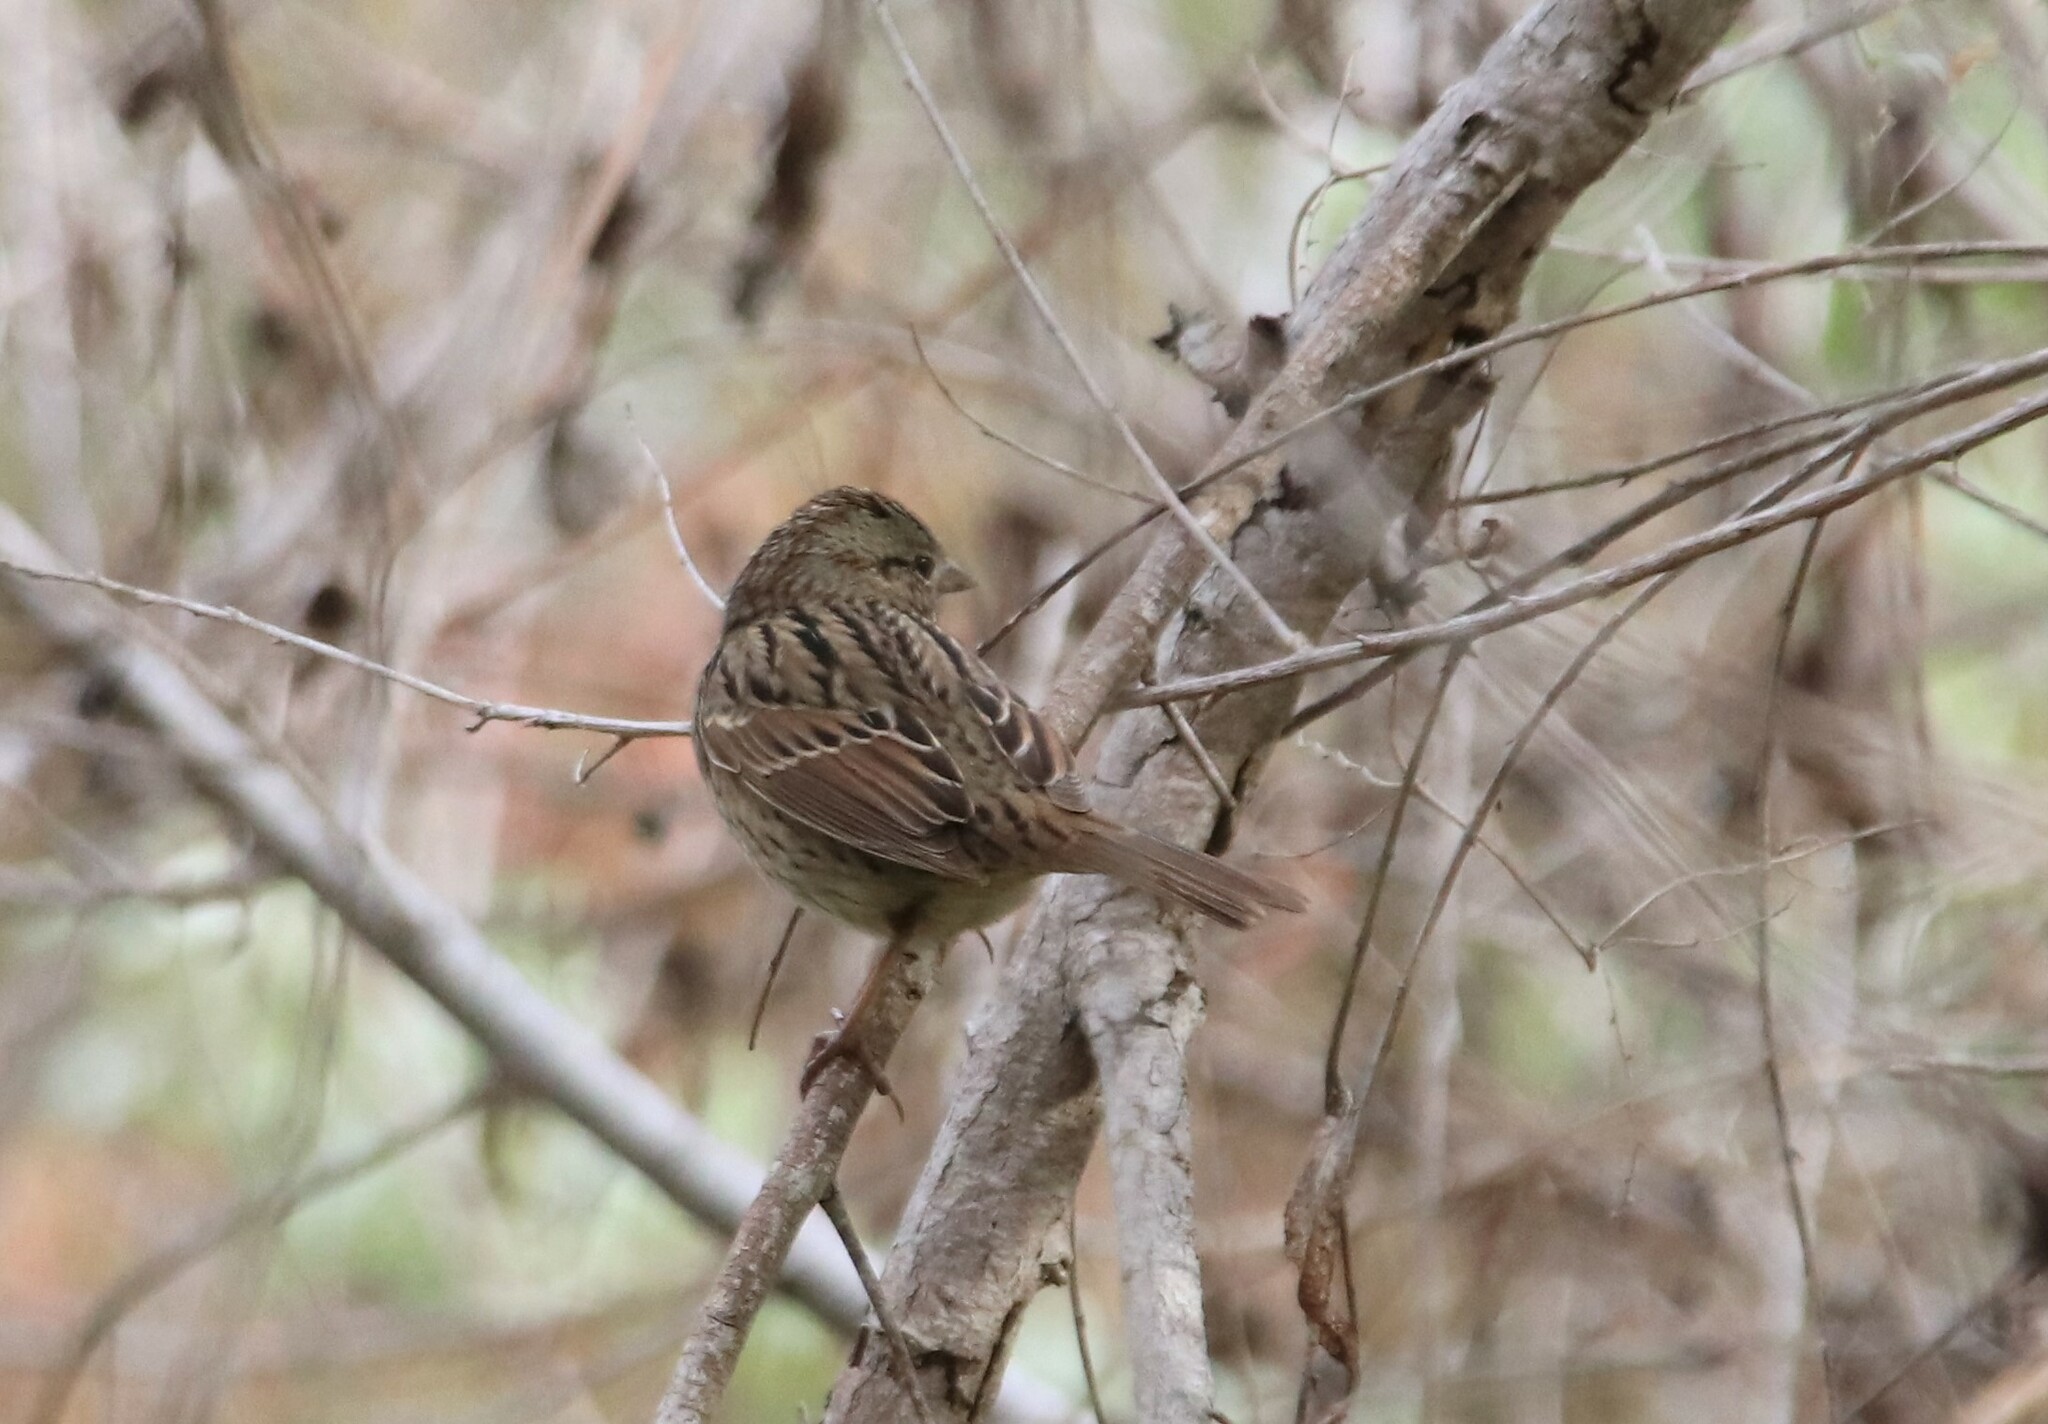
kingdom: Animalia
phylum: Chordata
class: Aves
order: Passeriformes
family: Passerellidae
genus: Melospiza
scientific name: Melospiza lincolnii
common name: Lincoln's sparrow
